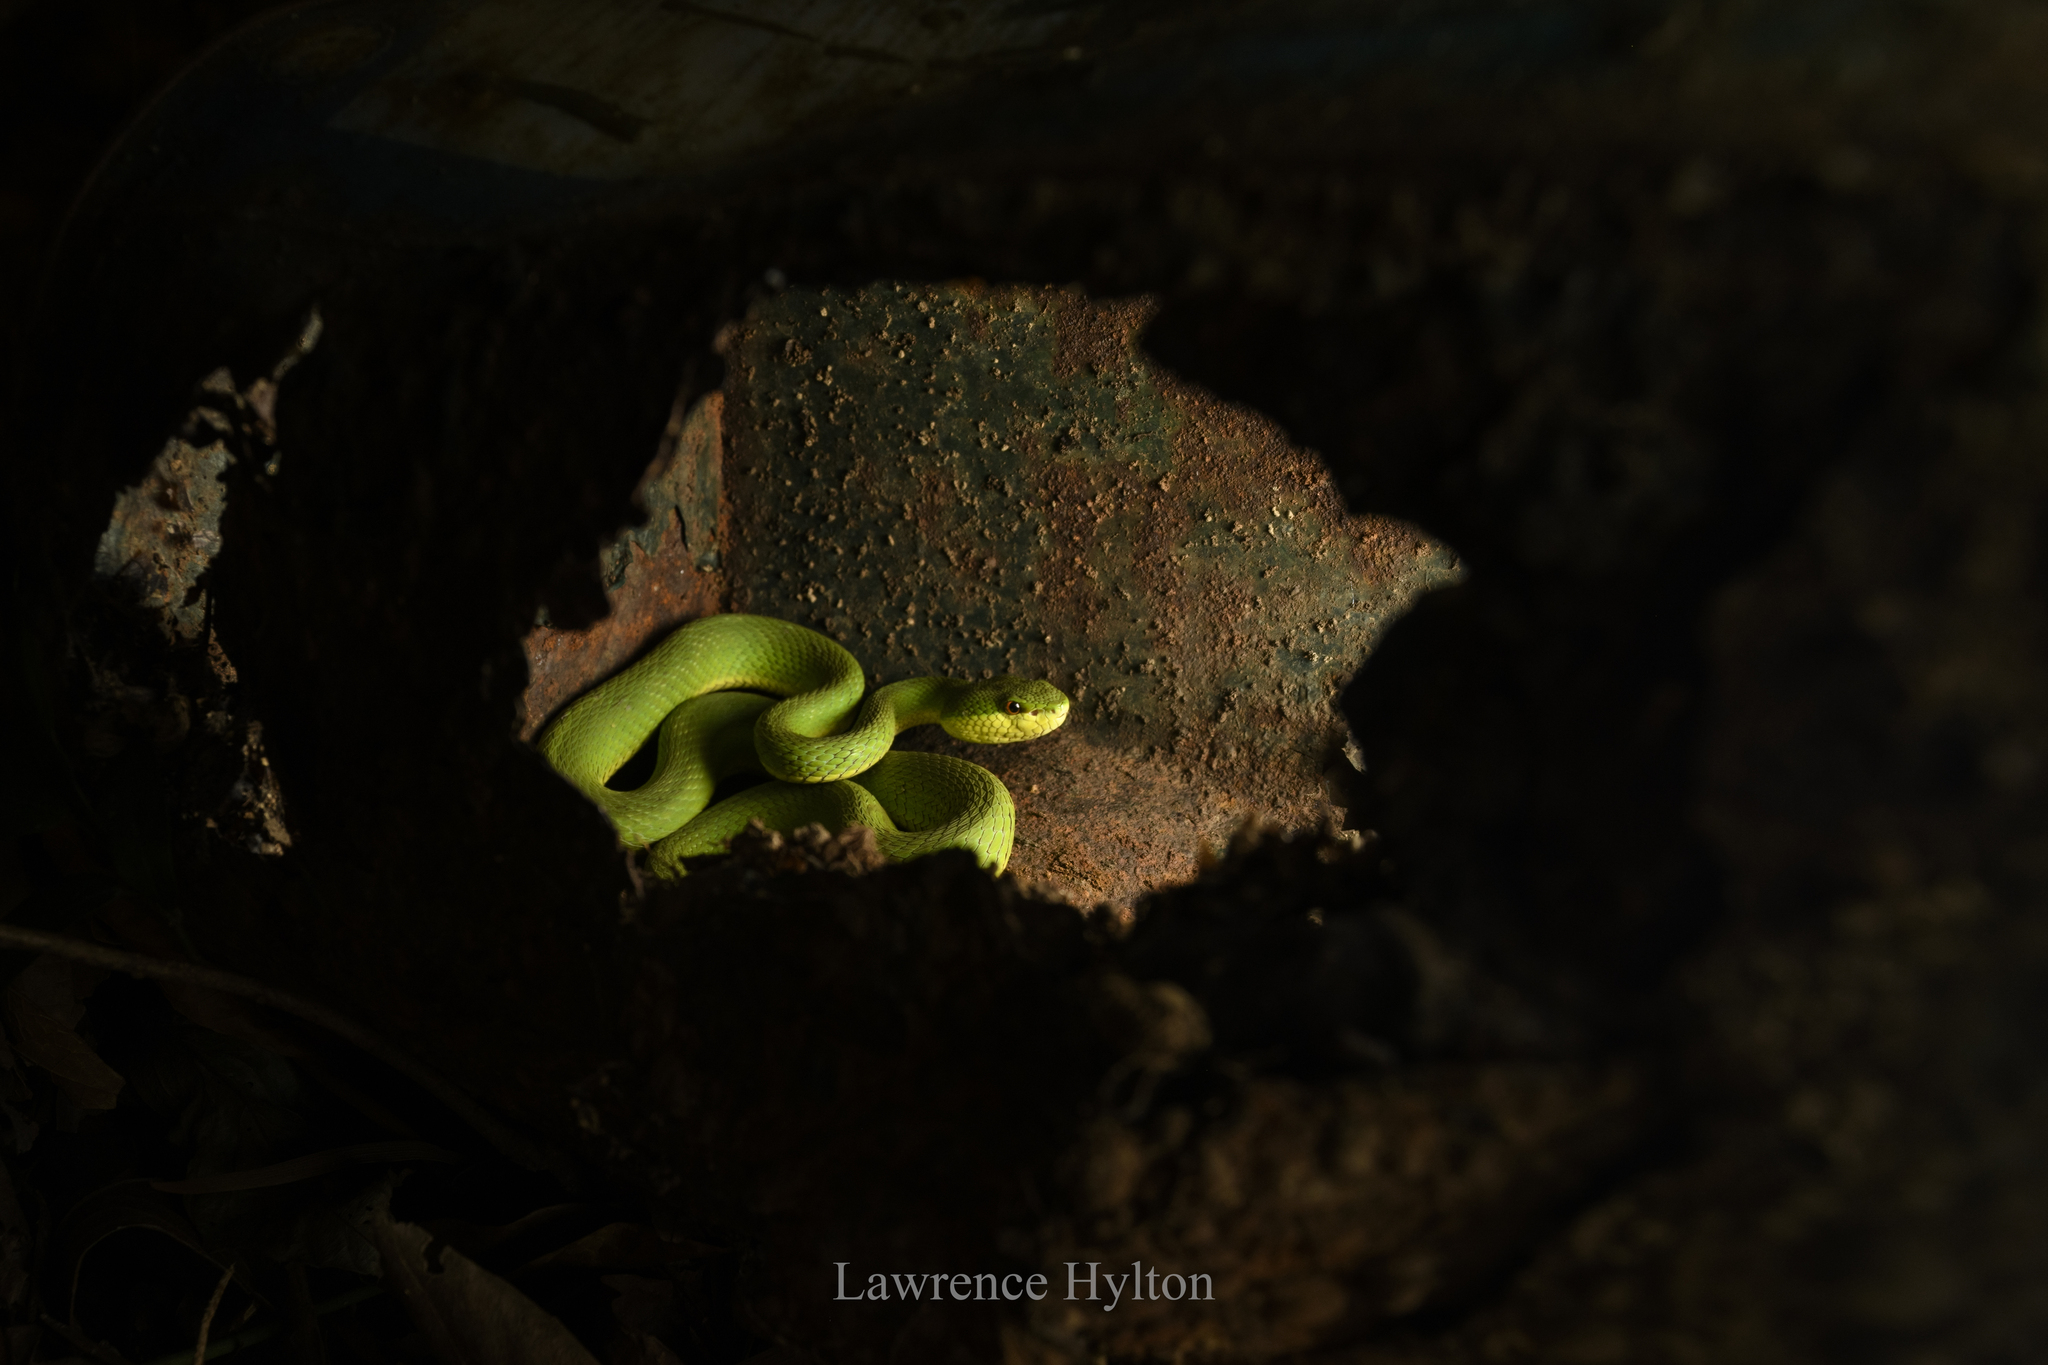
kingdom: Animalia
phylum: Chordata
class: Squamata
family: Viperidae
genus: Trimeresurus
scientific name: Trimeresurus albolabris
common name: White-lipped pitviper
